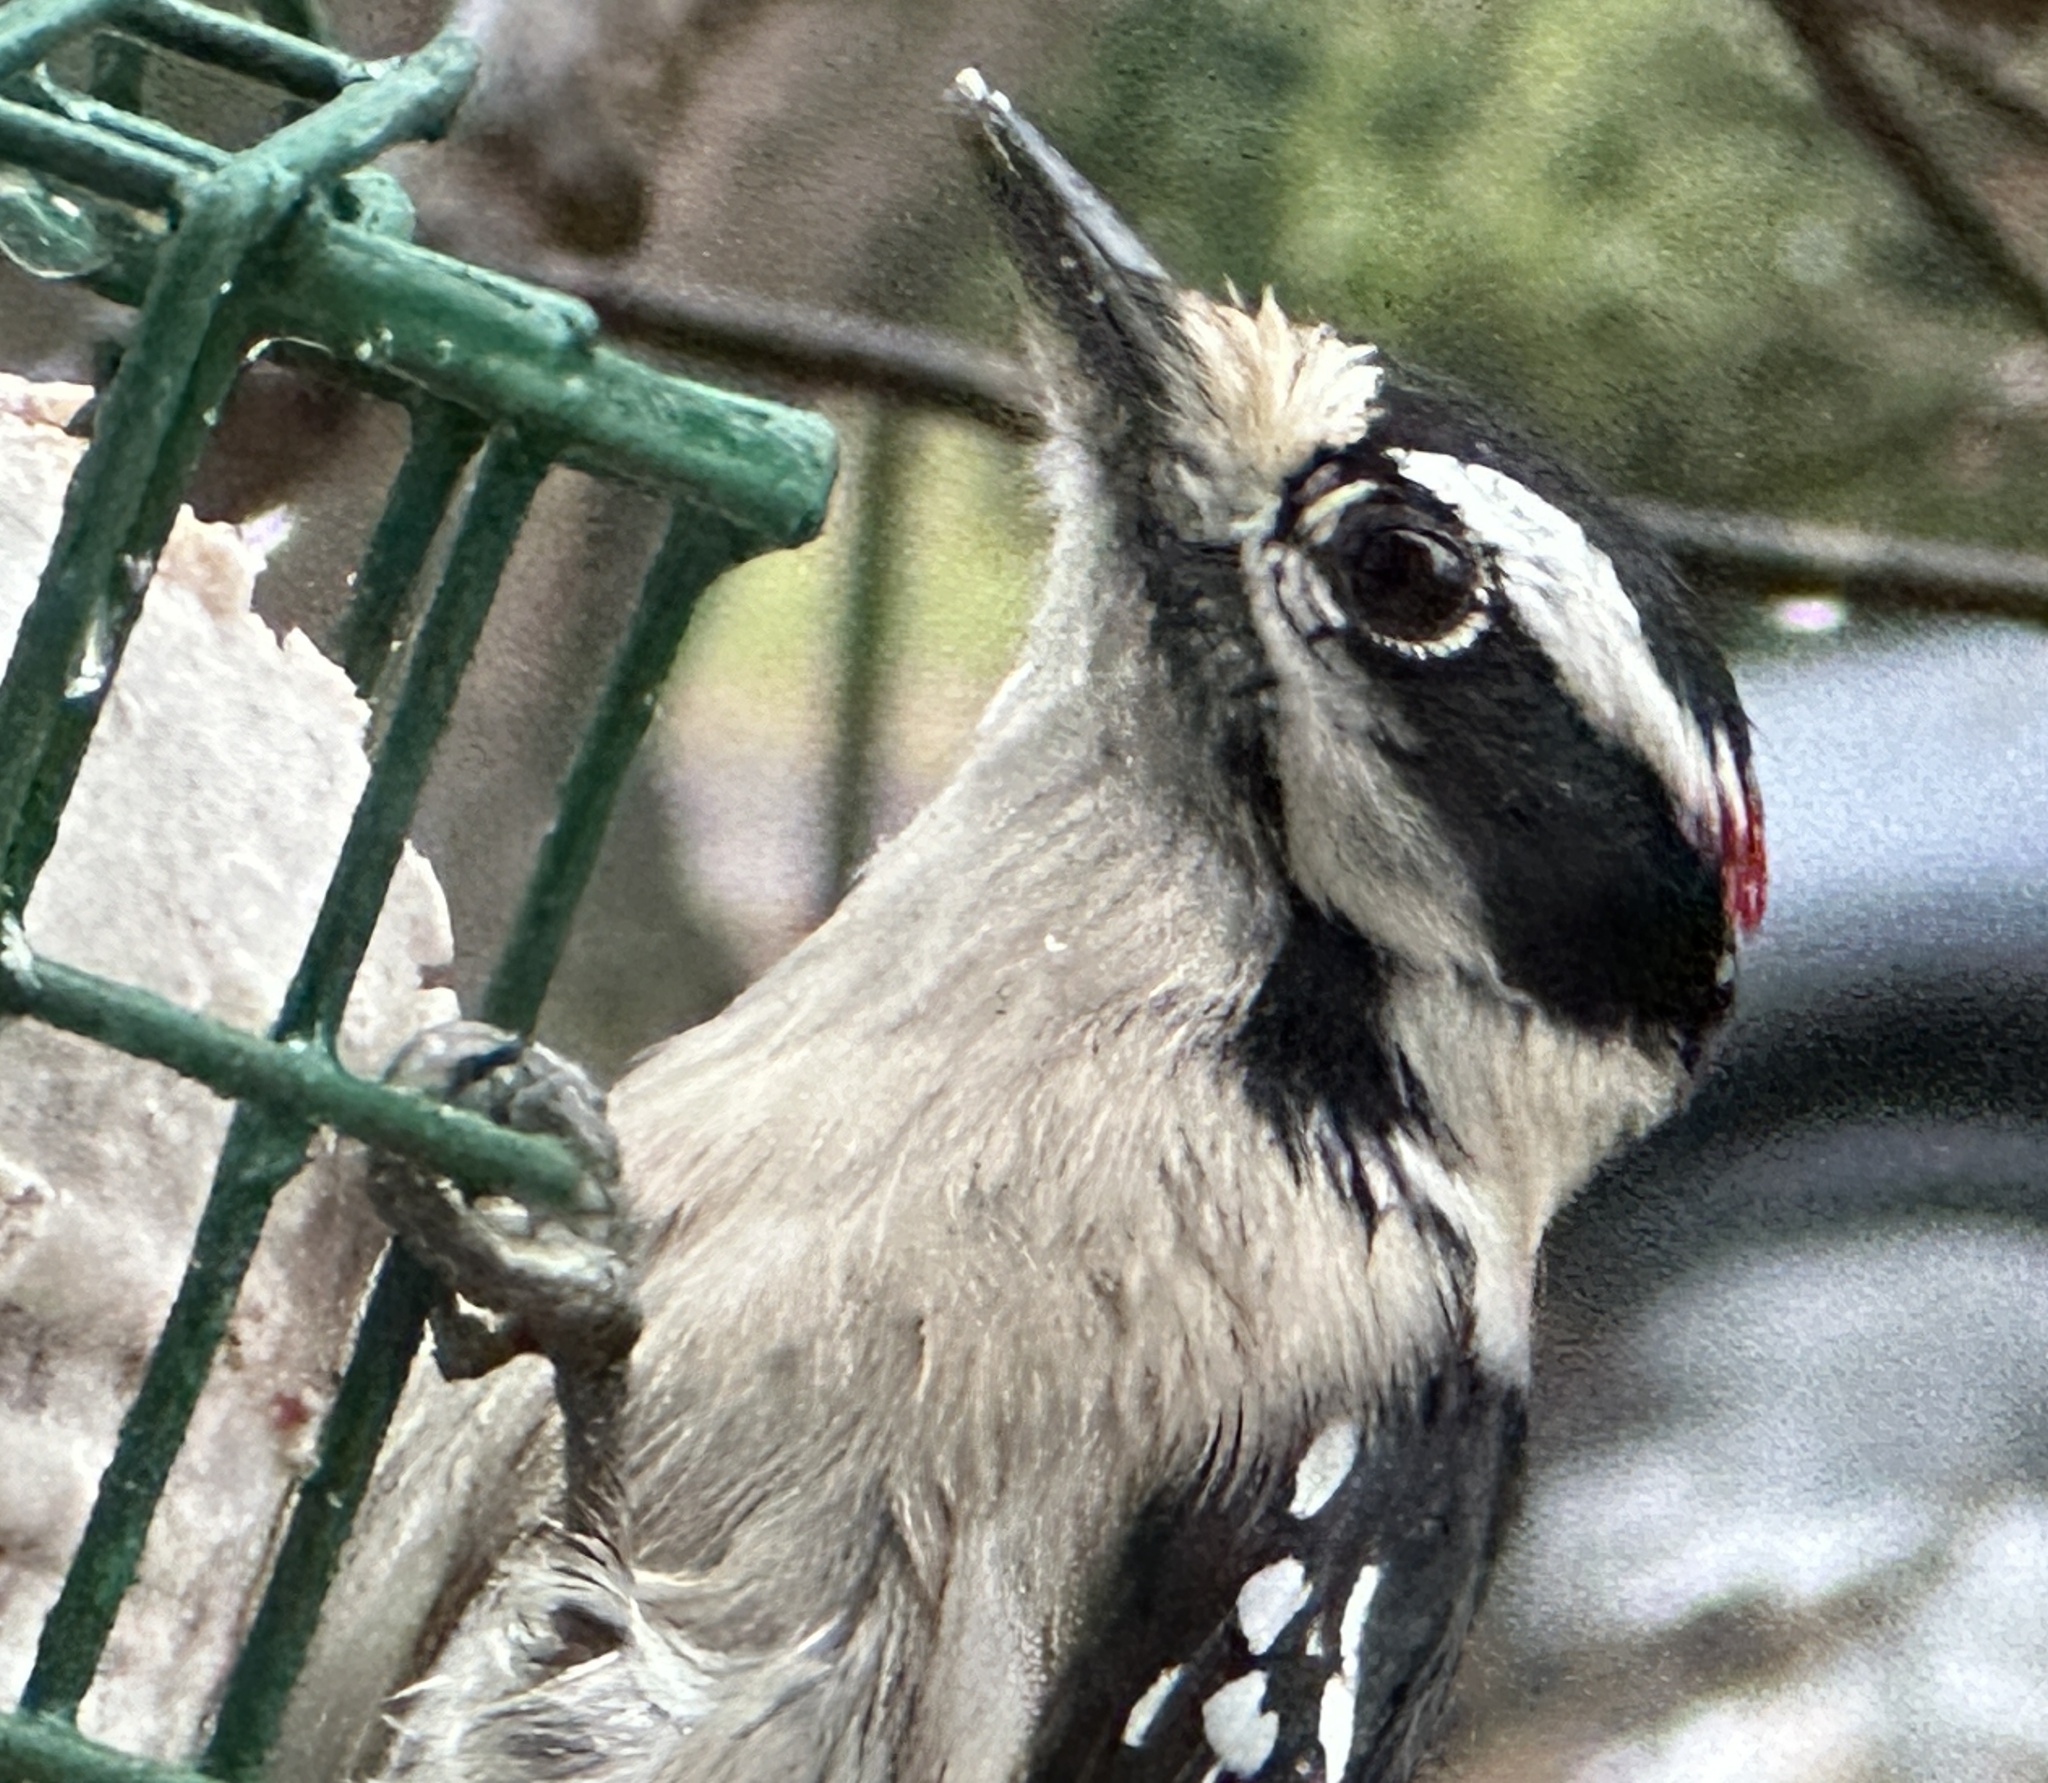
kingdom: Animalia
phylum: Chordata
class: Aves
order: Piciformes
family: Picidae
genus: Dryobates
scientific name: Dryobates pubescens
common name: Downy woodpecker
